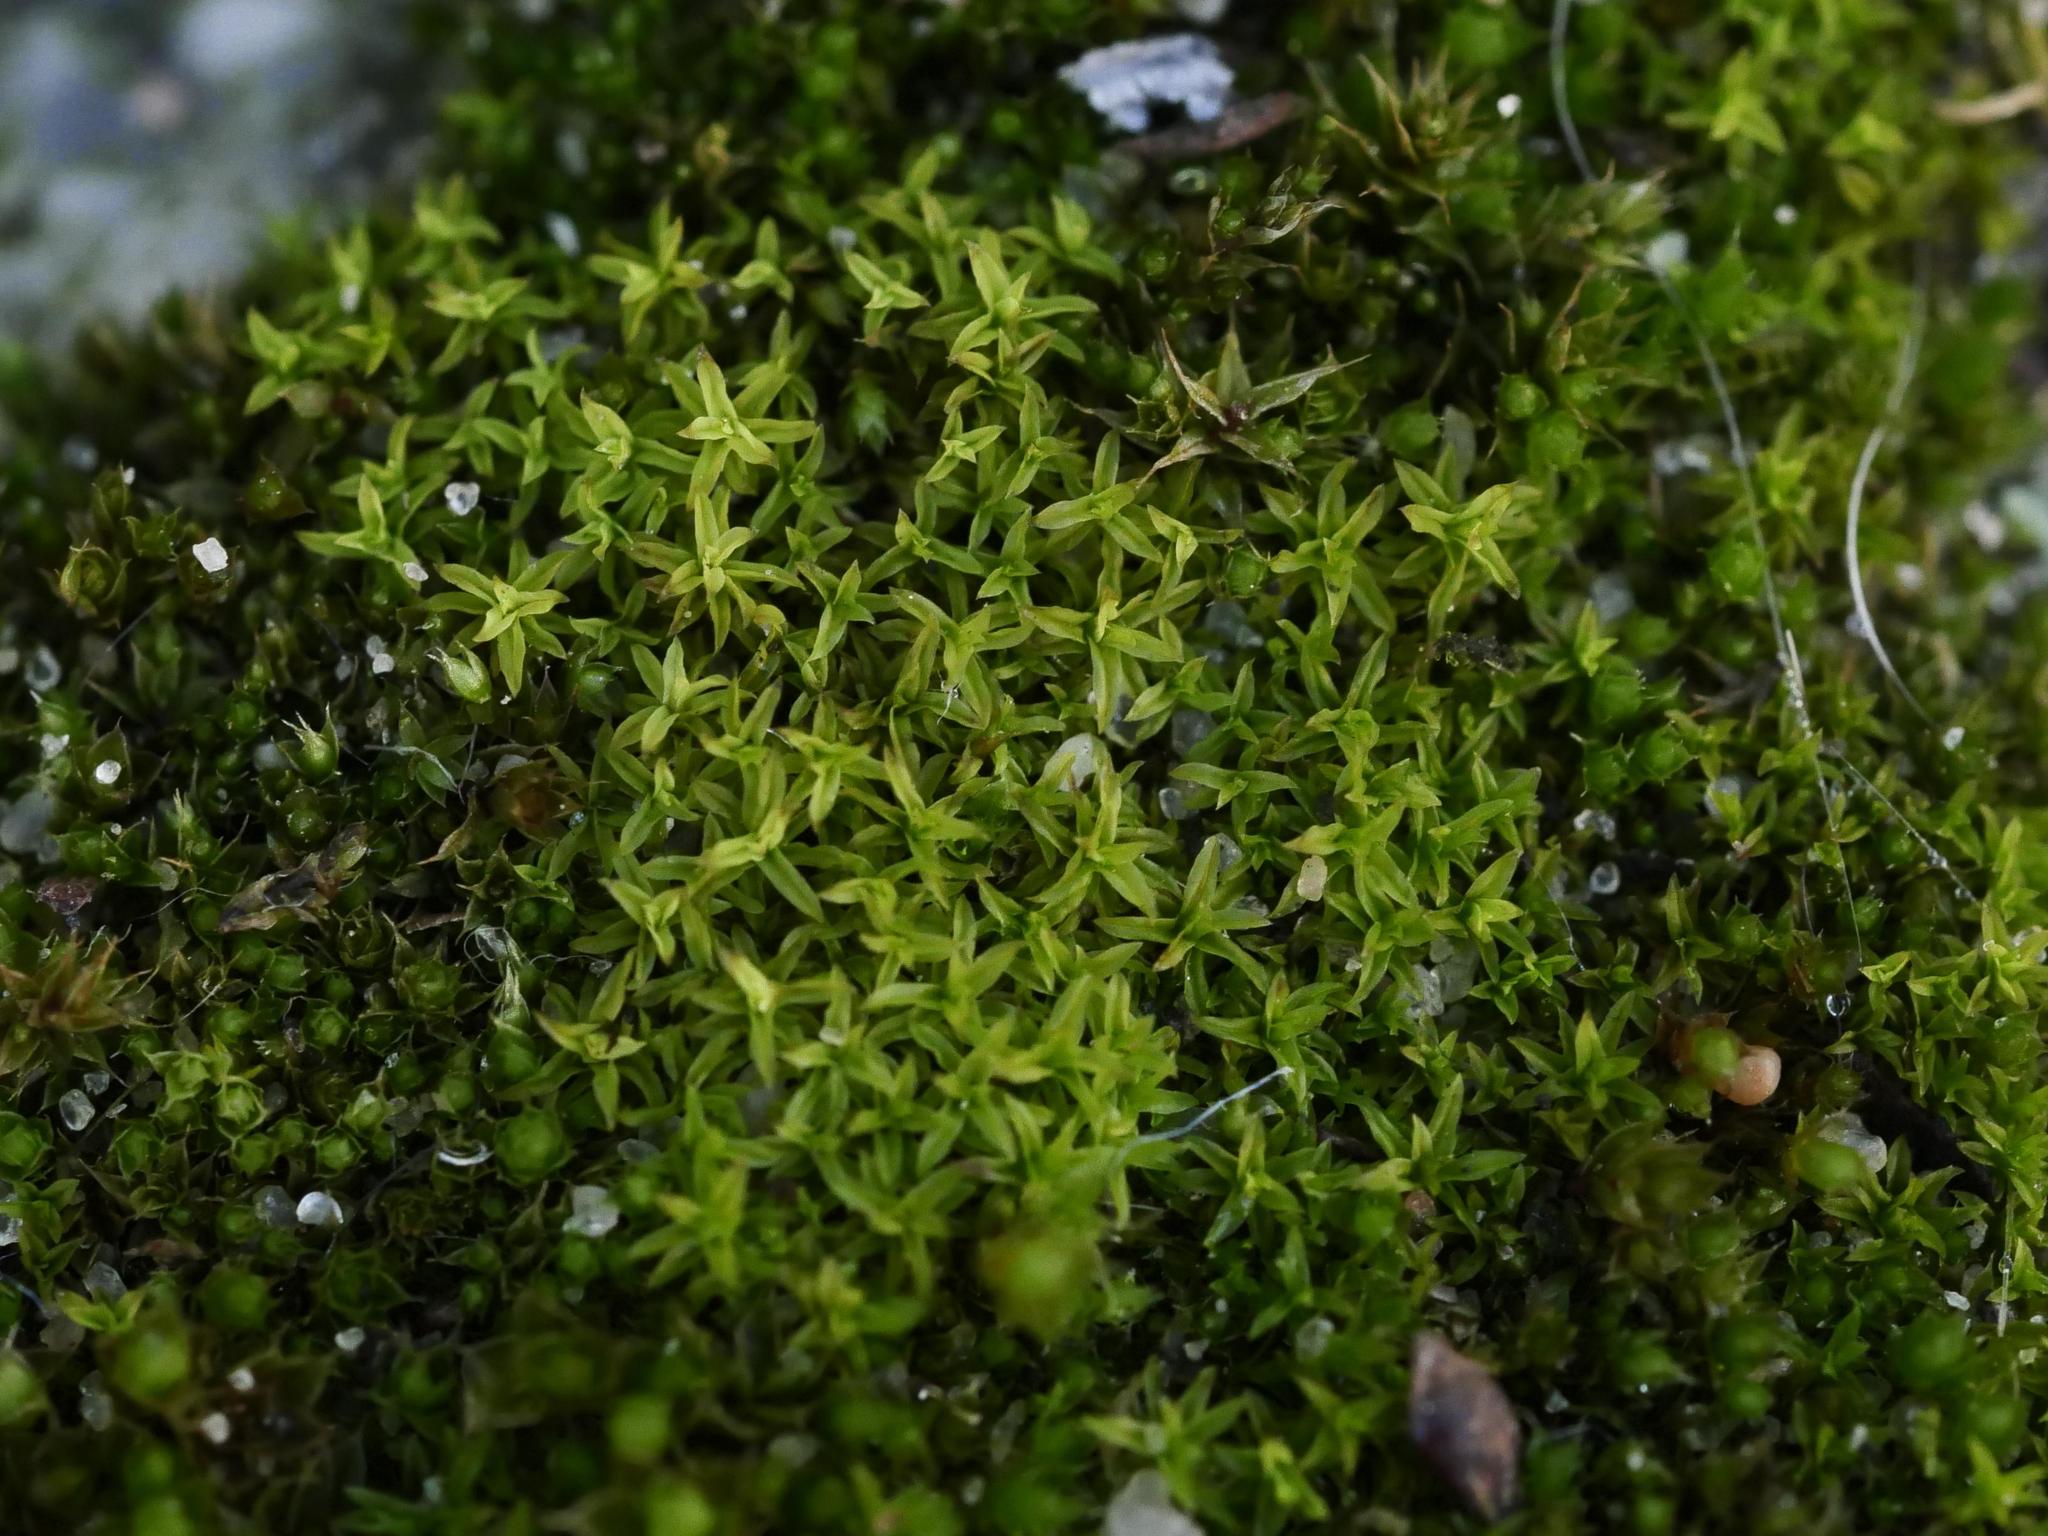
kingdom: Plantae
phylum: Bryophyta
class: Bryopsida
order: Pottiales
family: Pottiaceae
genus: Barbula
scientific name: Barbula unguiculata
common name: Prickly beard moss
